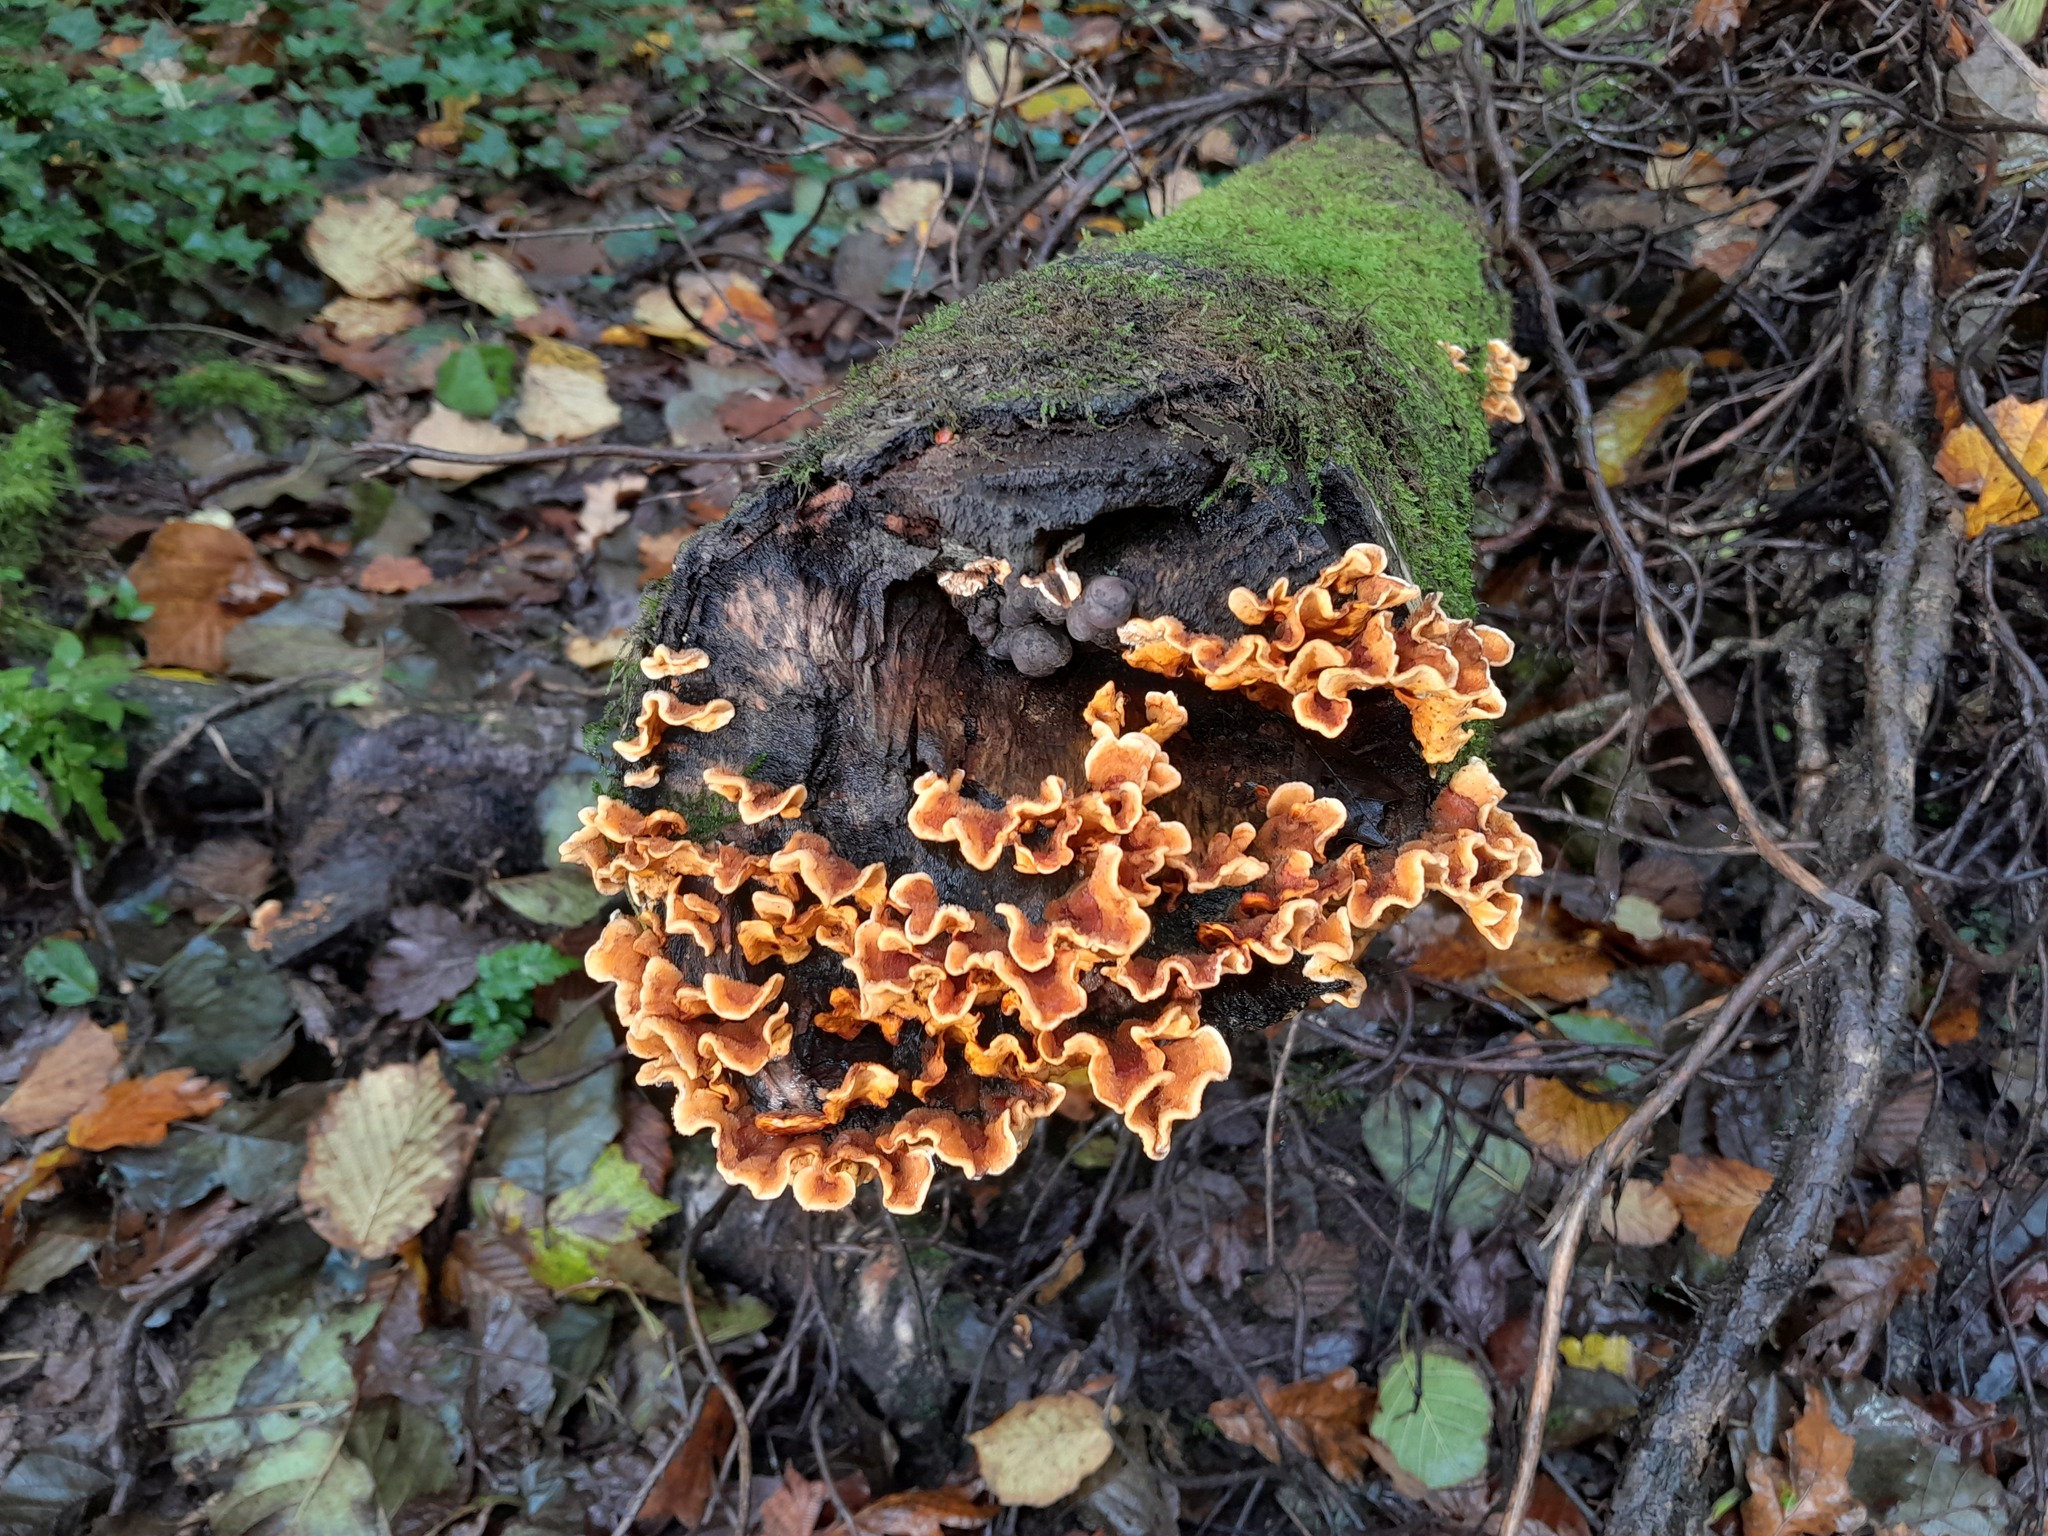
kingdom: Fungi
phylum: Basidiomycota
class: Agaricomycetes
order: Russulales
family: Stereaceae
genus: Stereum
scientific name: Stereum hirsutum
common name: Hairy curtain crust
